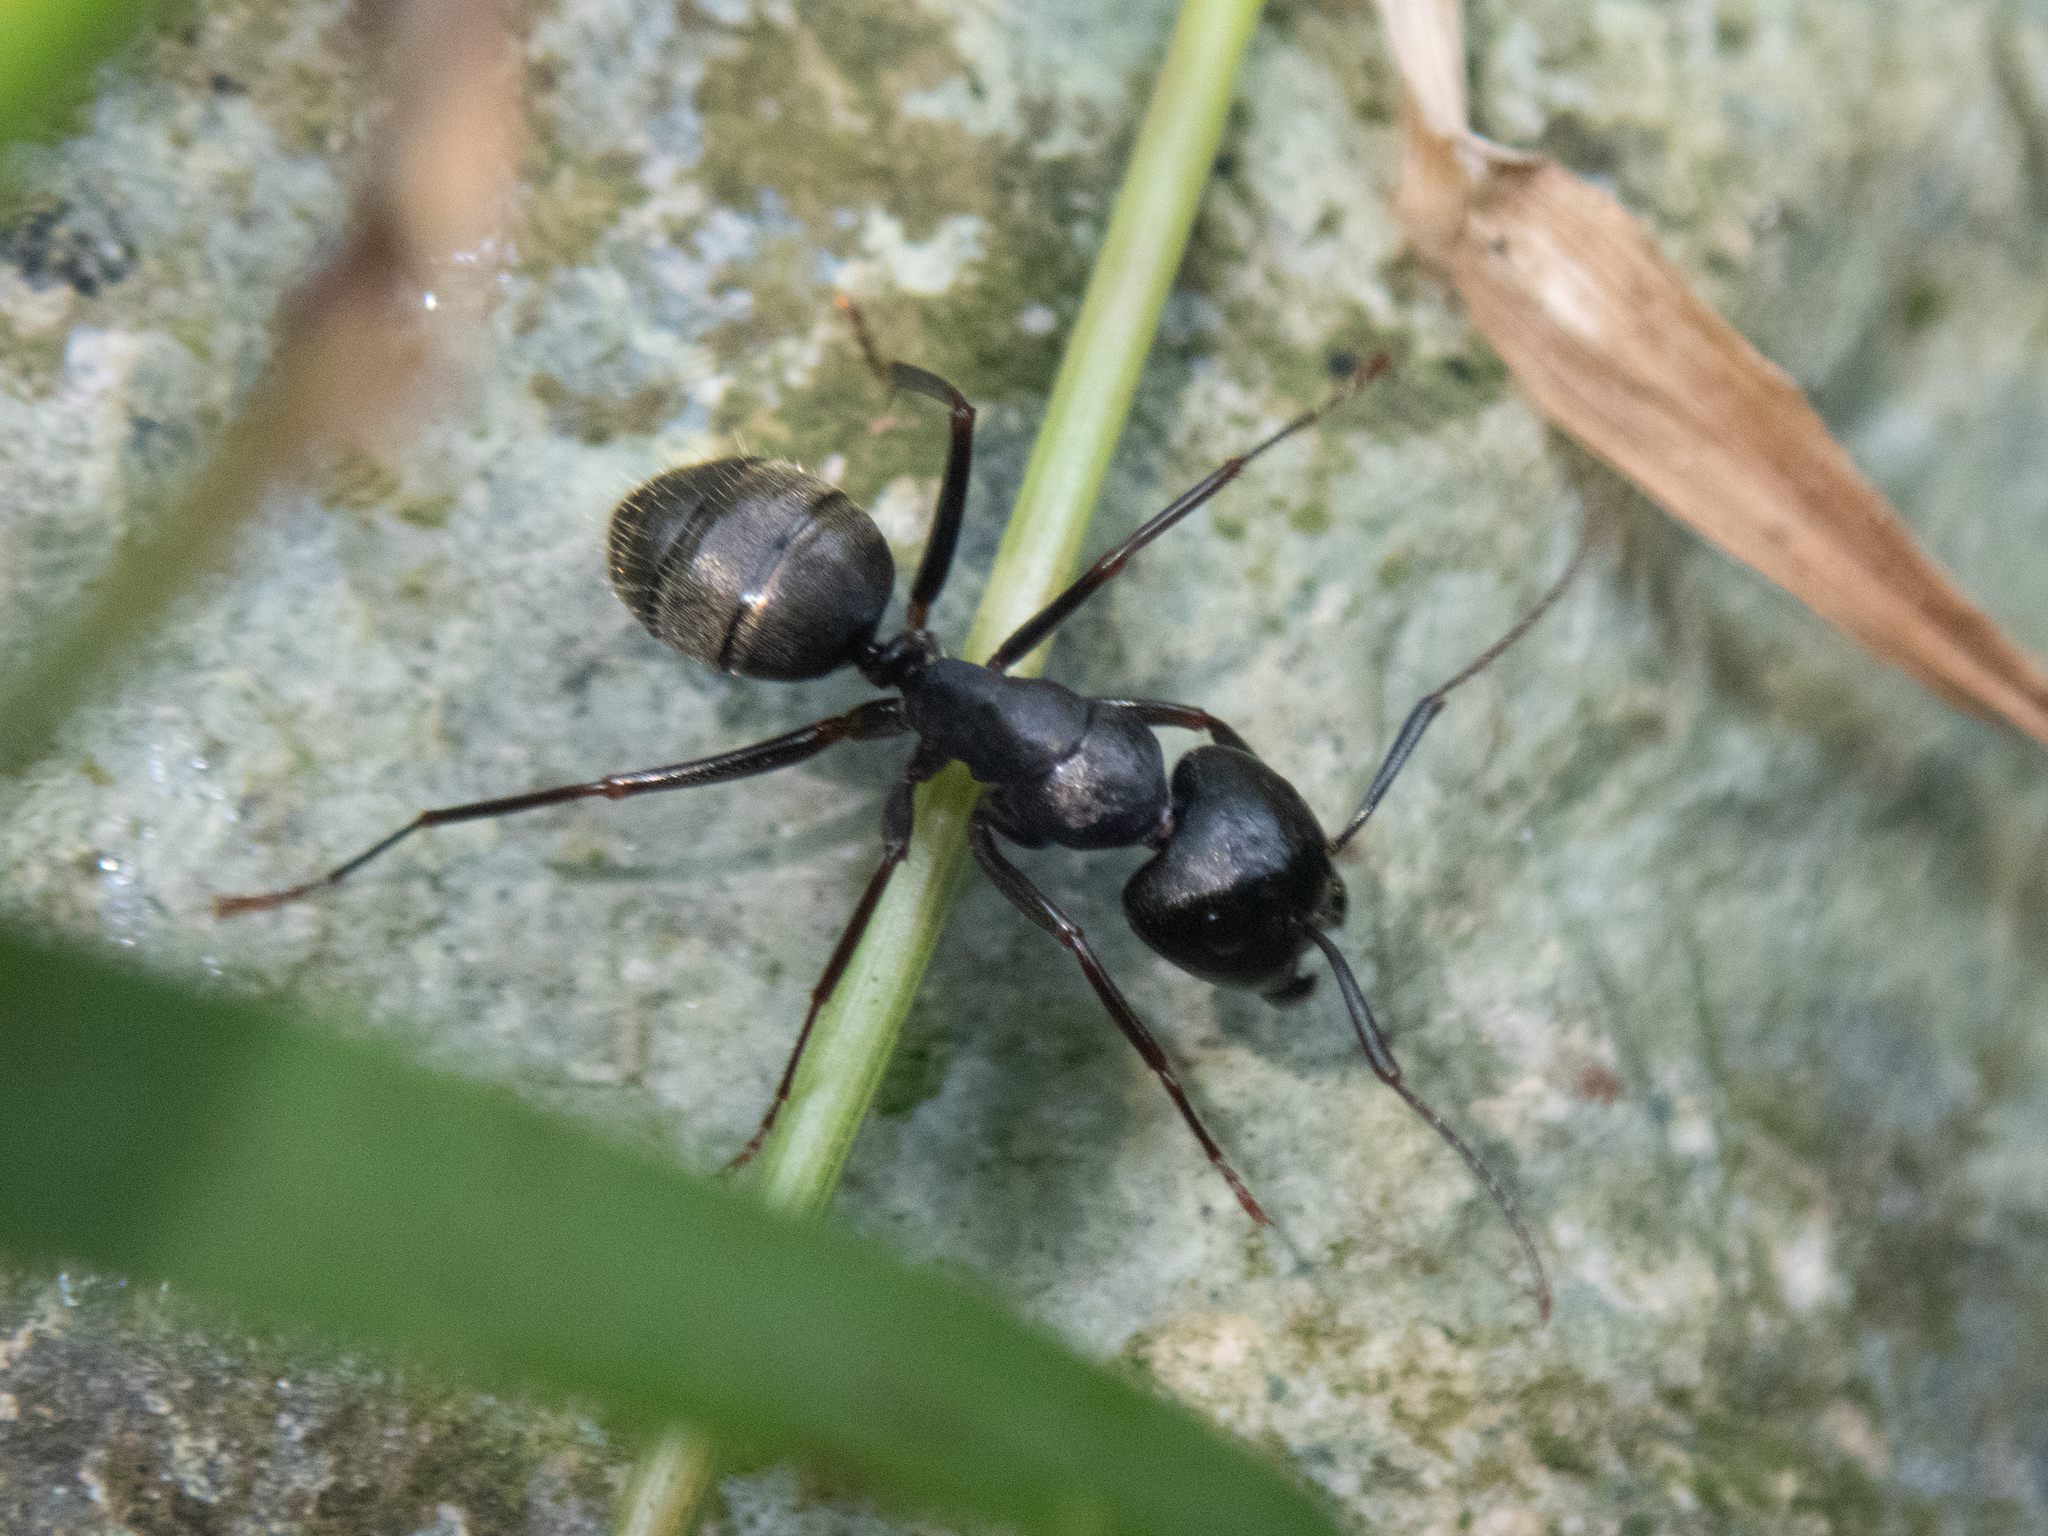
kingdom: Animalia
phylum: Arthropoda
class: Insecta
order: Hymenoptera
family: Formicidae
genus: Camponotus
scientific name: Camponotus pennsylvanicus
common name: Black carpenter ant
